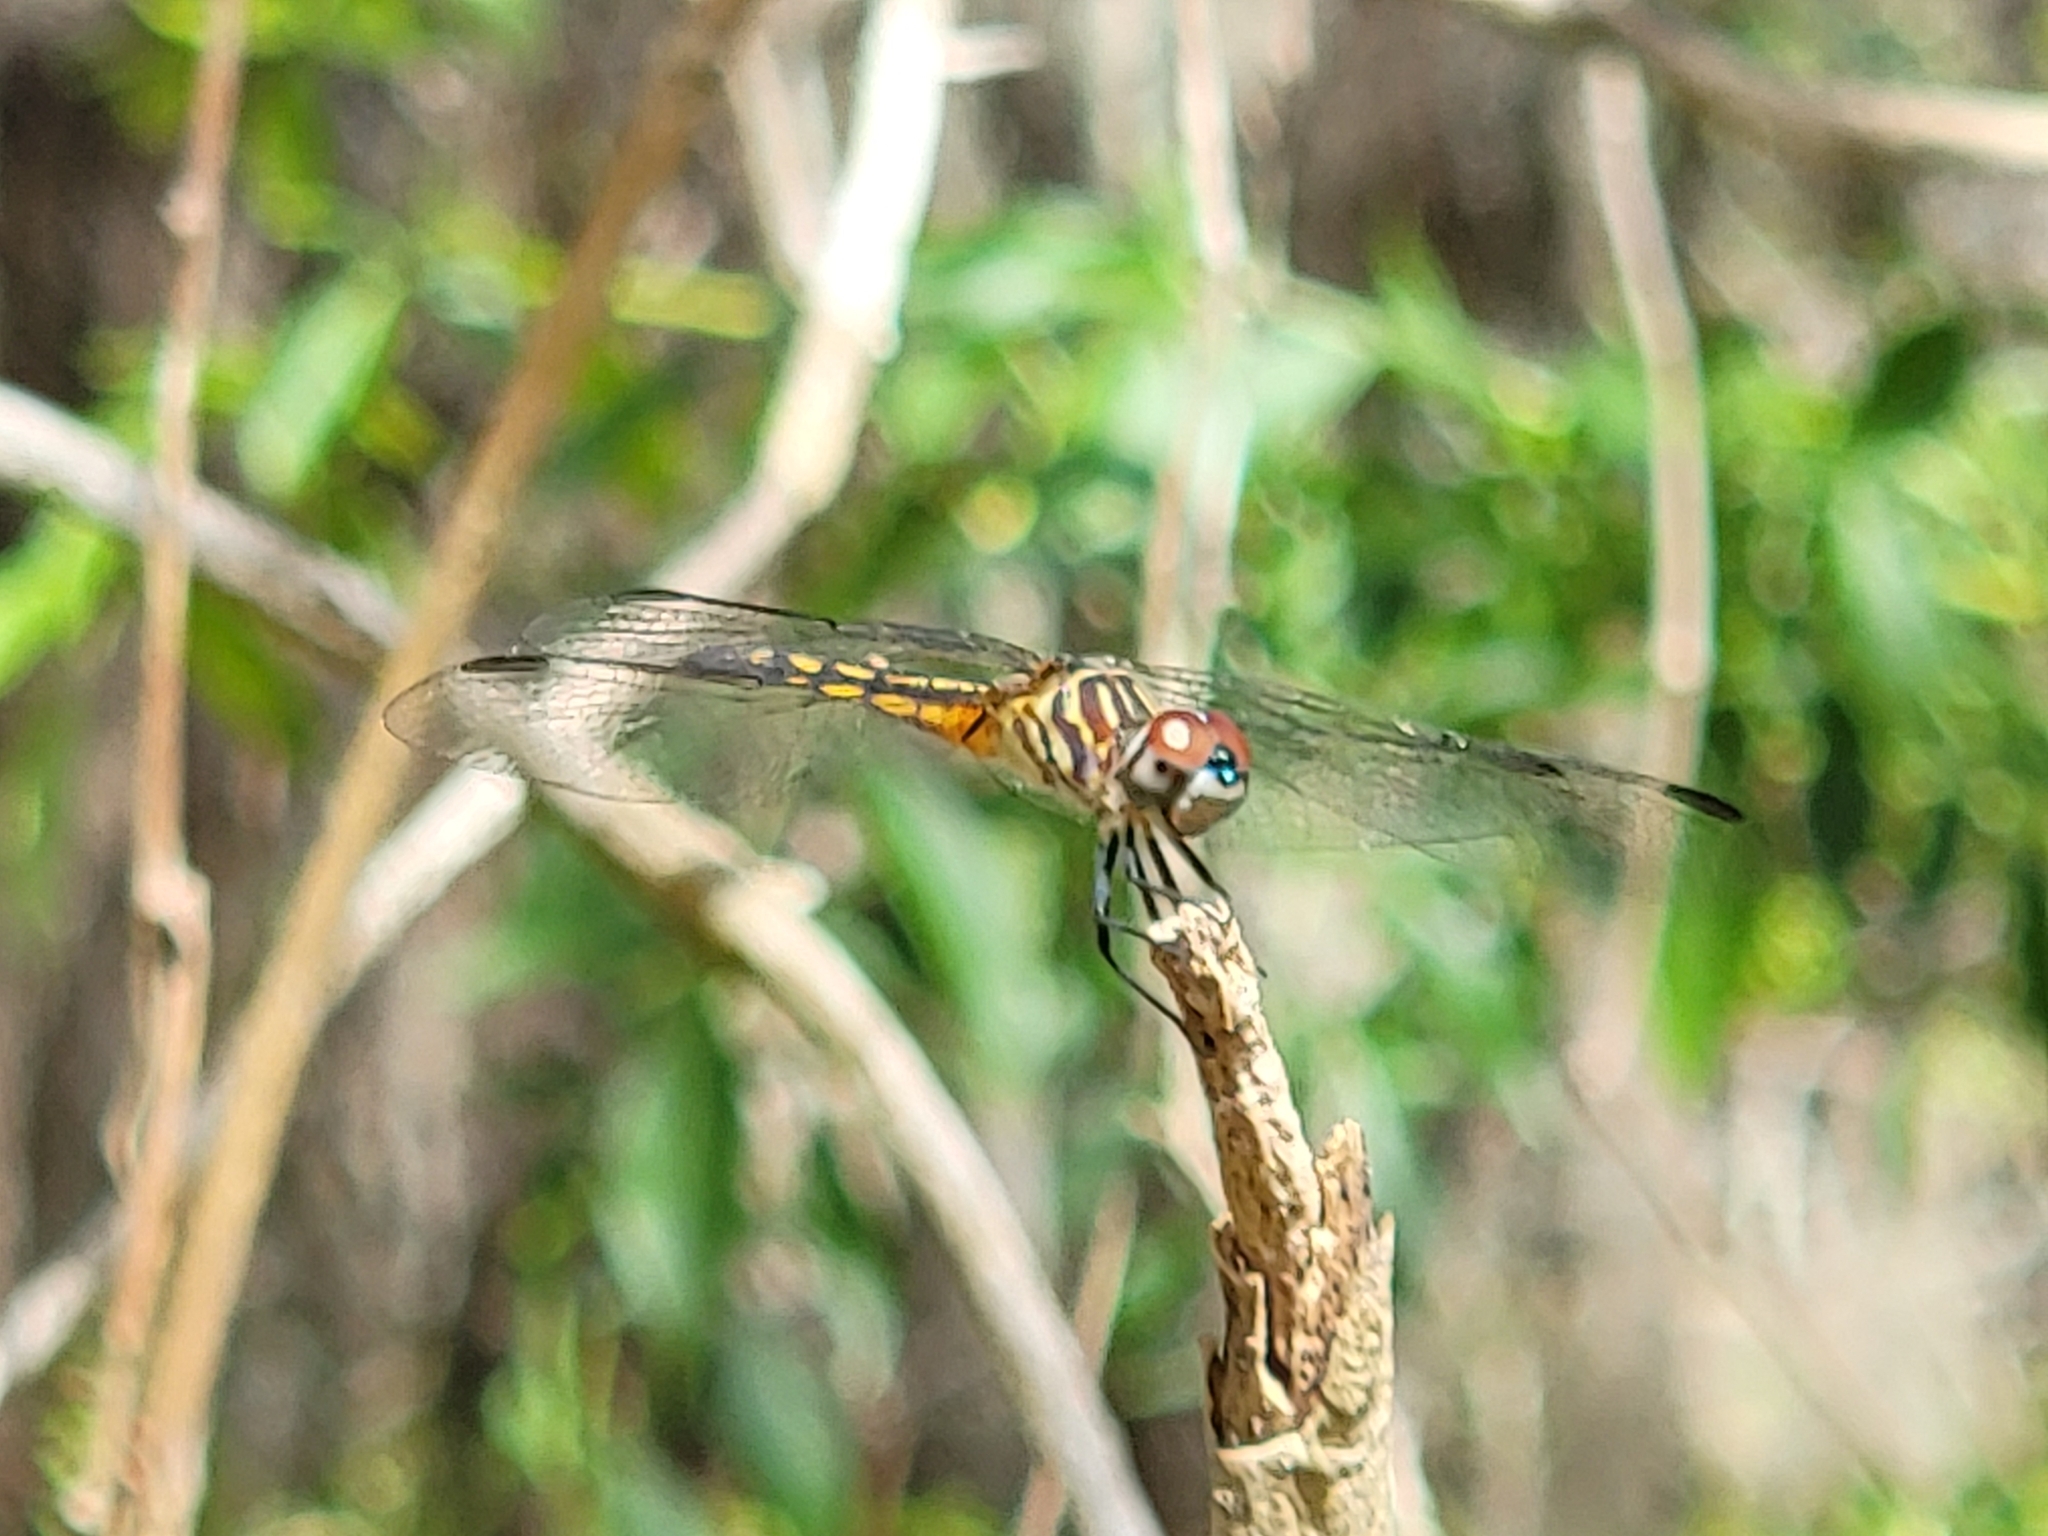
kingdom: Animalia
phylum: Arthropoda
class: Insecta
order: Odonata
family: Libellulidae
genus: Pachydiplax
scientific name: Pachydiplax longipennis
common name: Blue dasher
